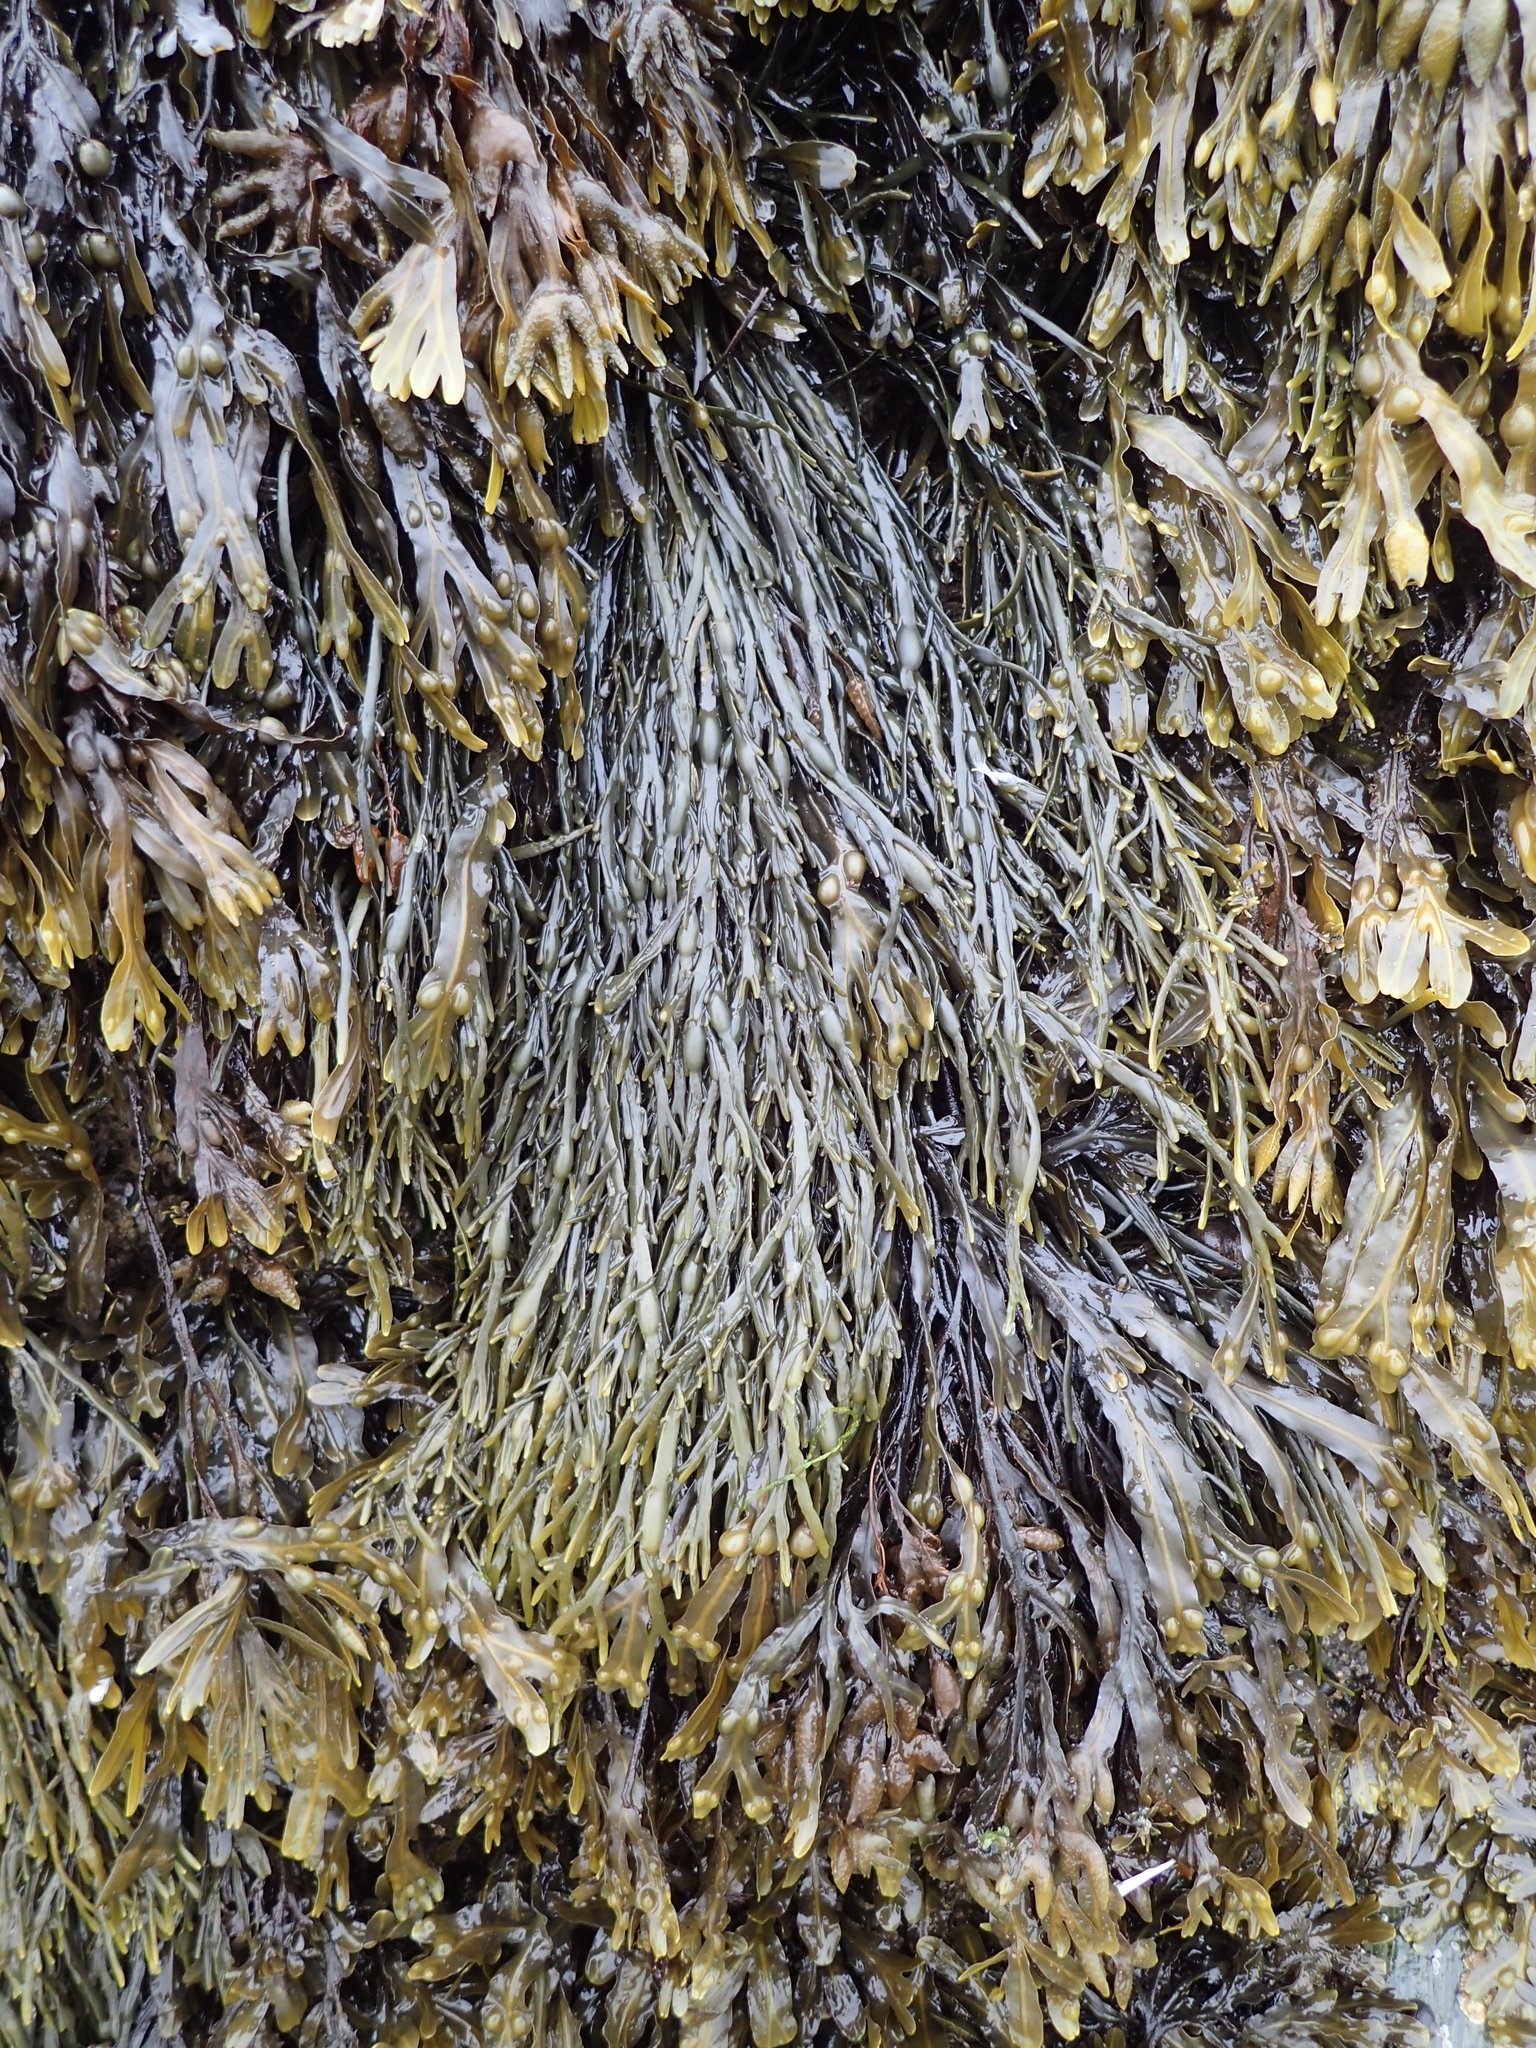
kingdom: Chromista
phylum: Ochrophyta
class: Phaeophyceae
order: Fucales
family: Fucaceae
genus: Ascophyllum
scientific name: Ascophyllum nodosum
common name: Knotted wrack
